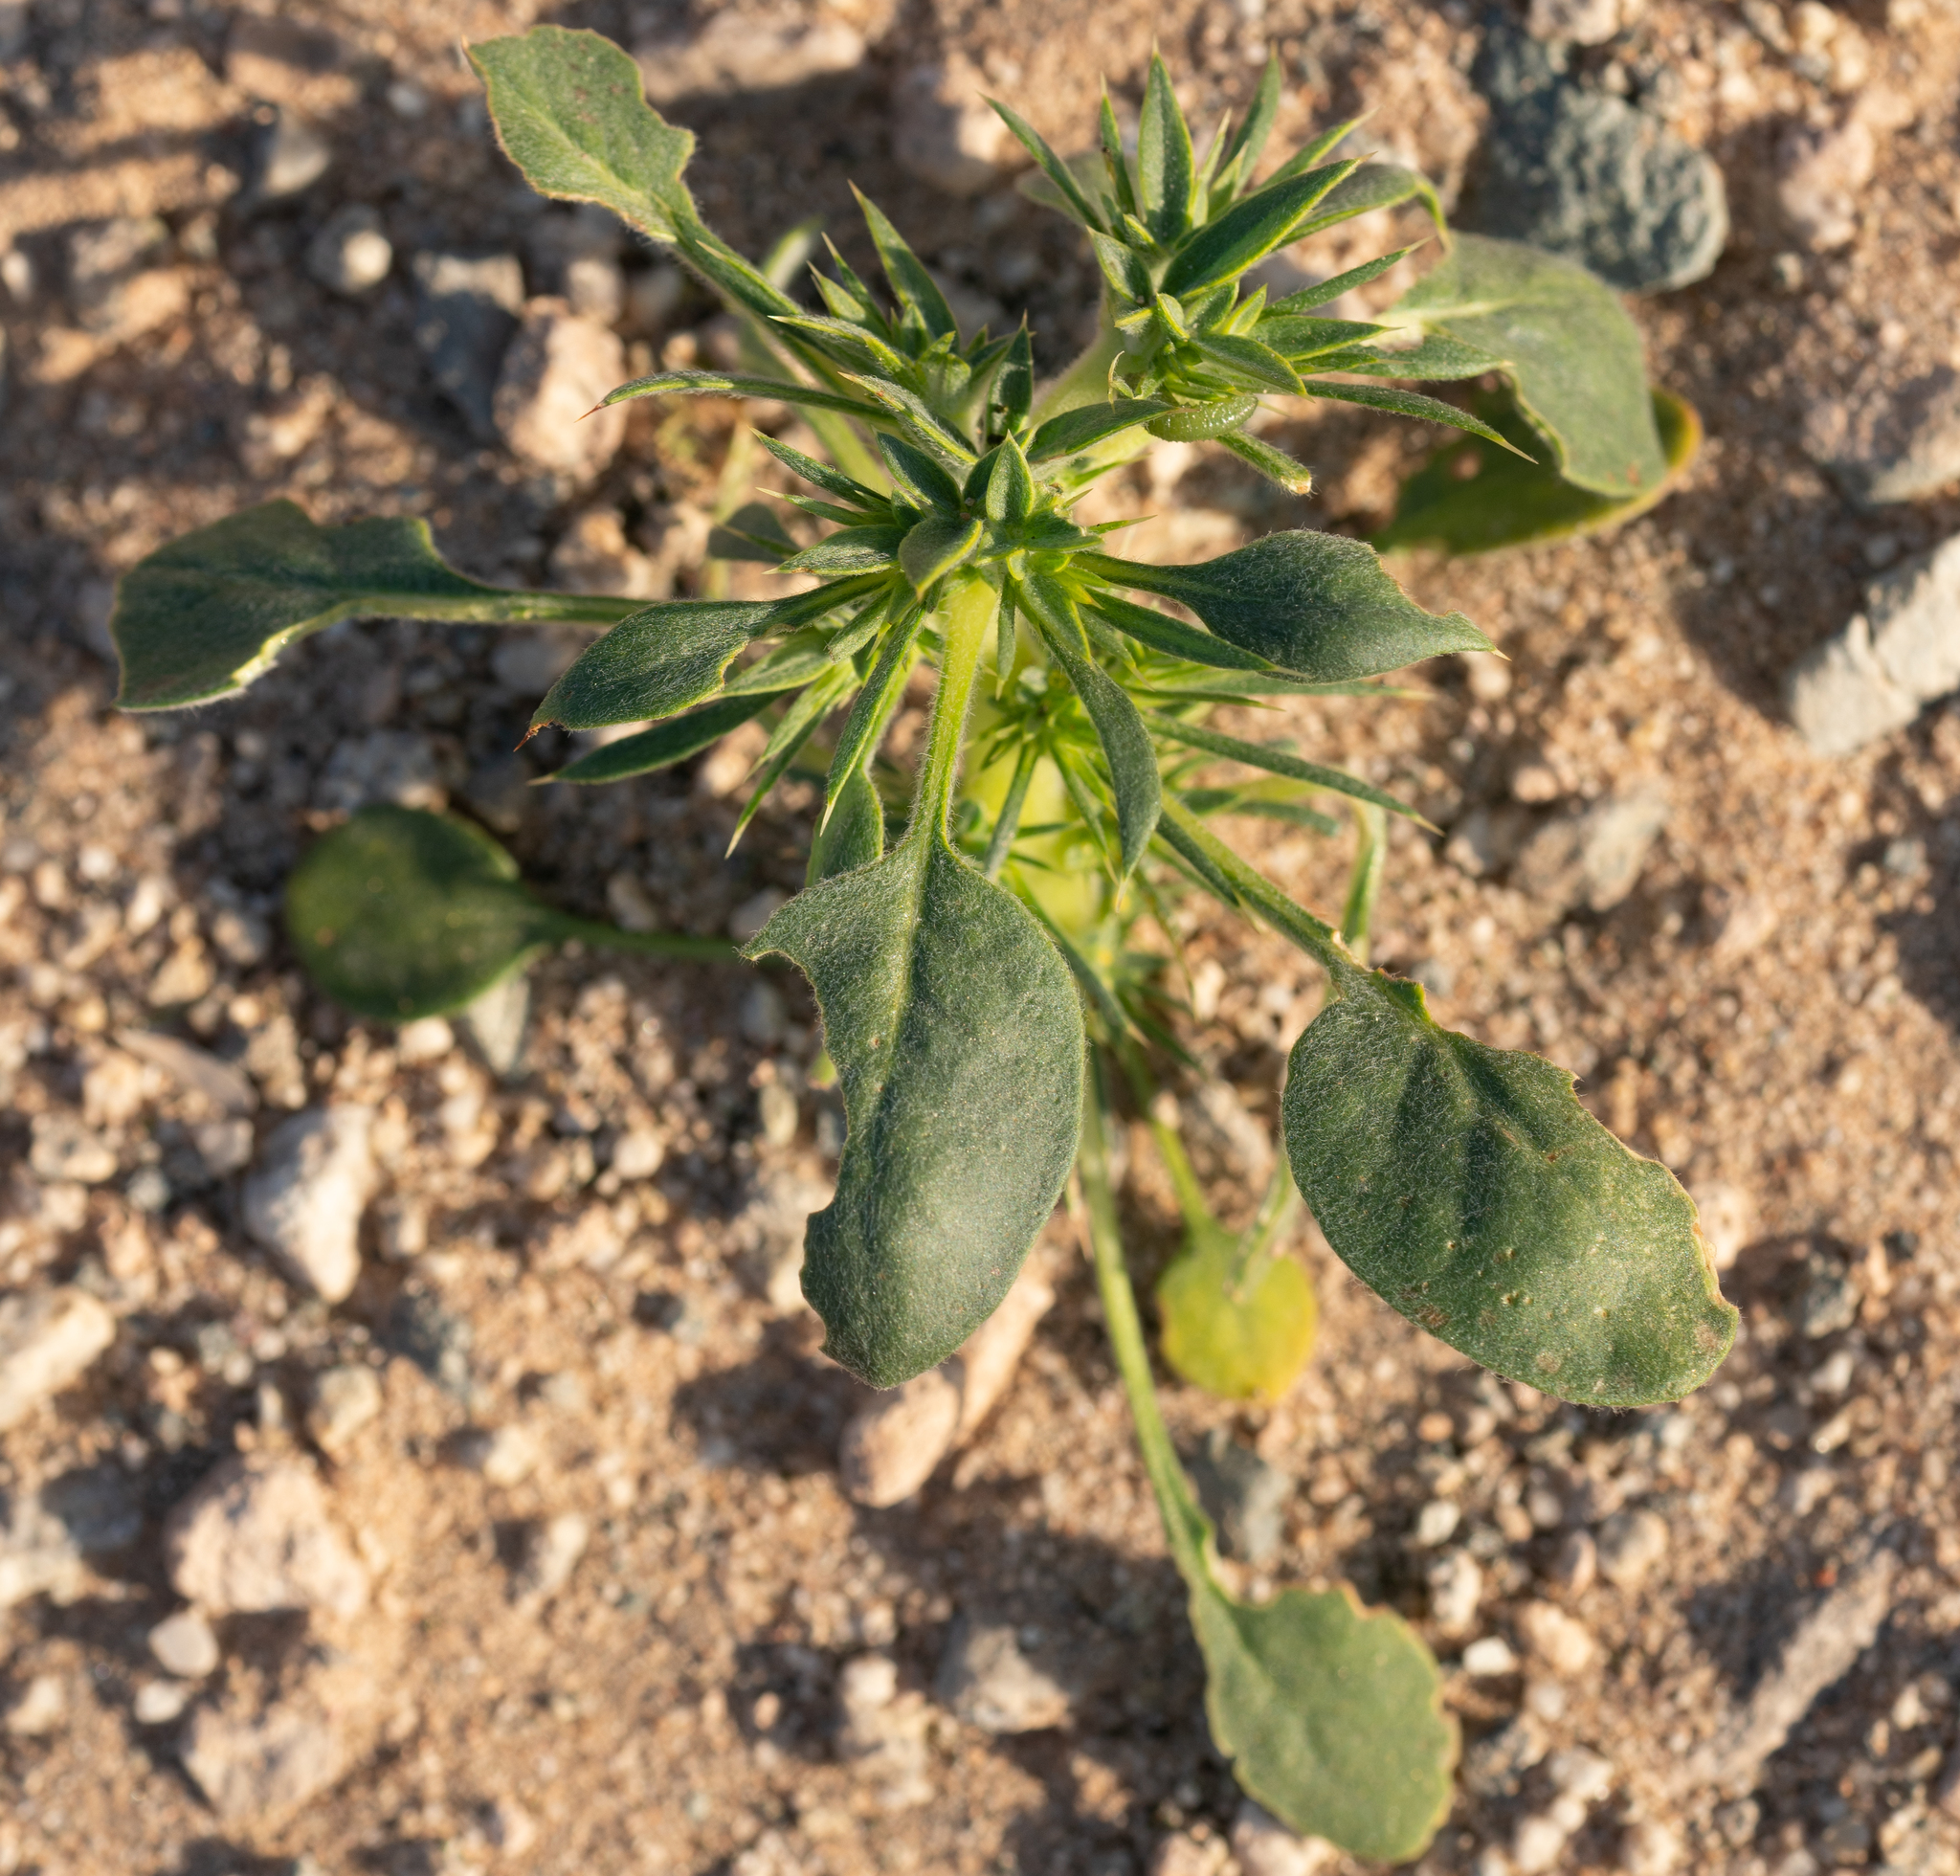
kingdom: Plantae
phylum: Tracheophyta
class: Magnoliopsida
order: Caryophyllales
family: Polygonaceae
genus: Chorizanthe
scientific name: Chorizanthe rigida
